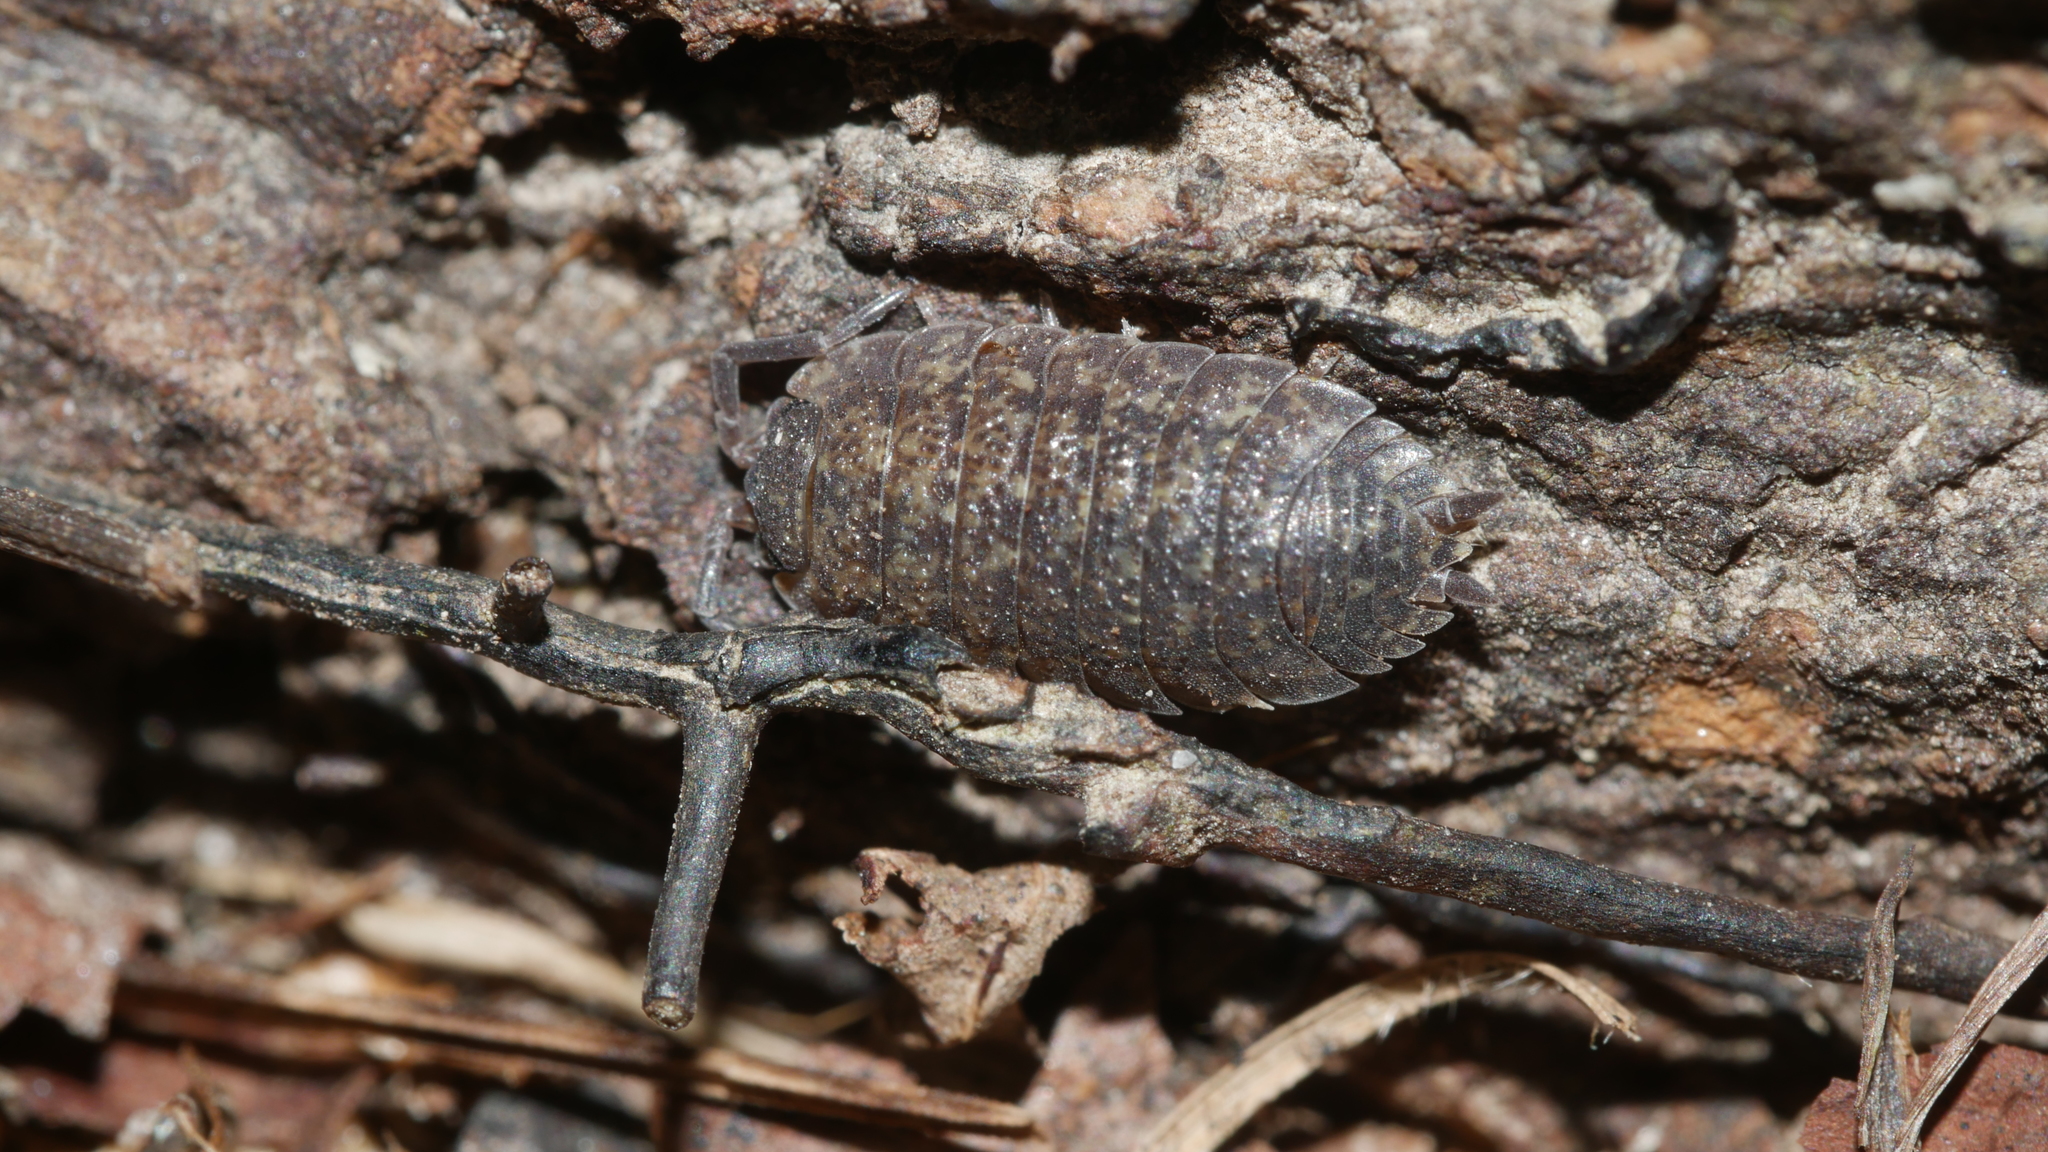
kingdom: Animalia
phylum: Arthropoda
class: Malacostraca
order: Isopoda
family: Porcellionidae
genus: Porcellio
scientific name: Porcellio scaber
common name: Common rough woodlouse
